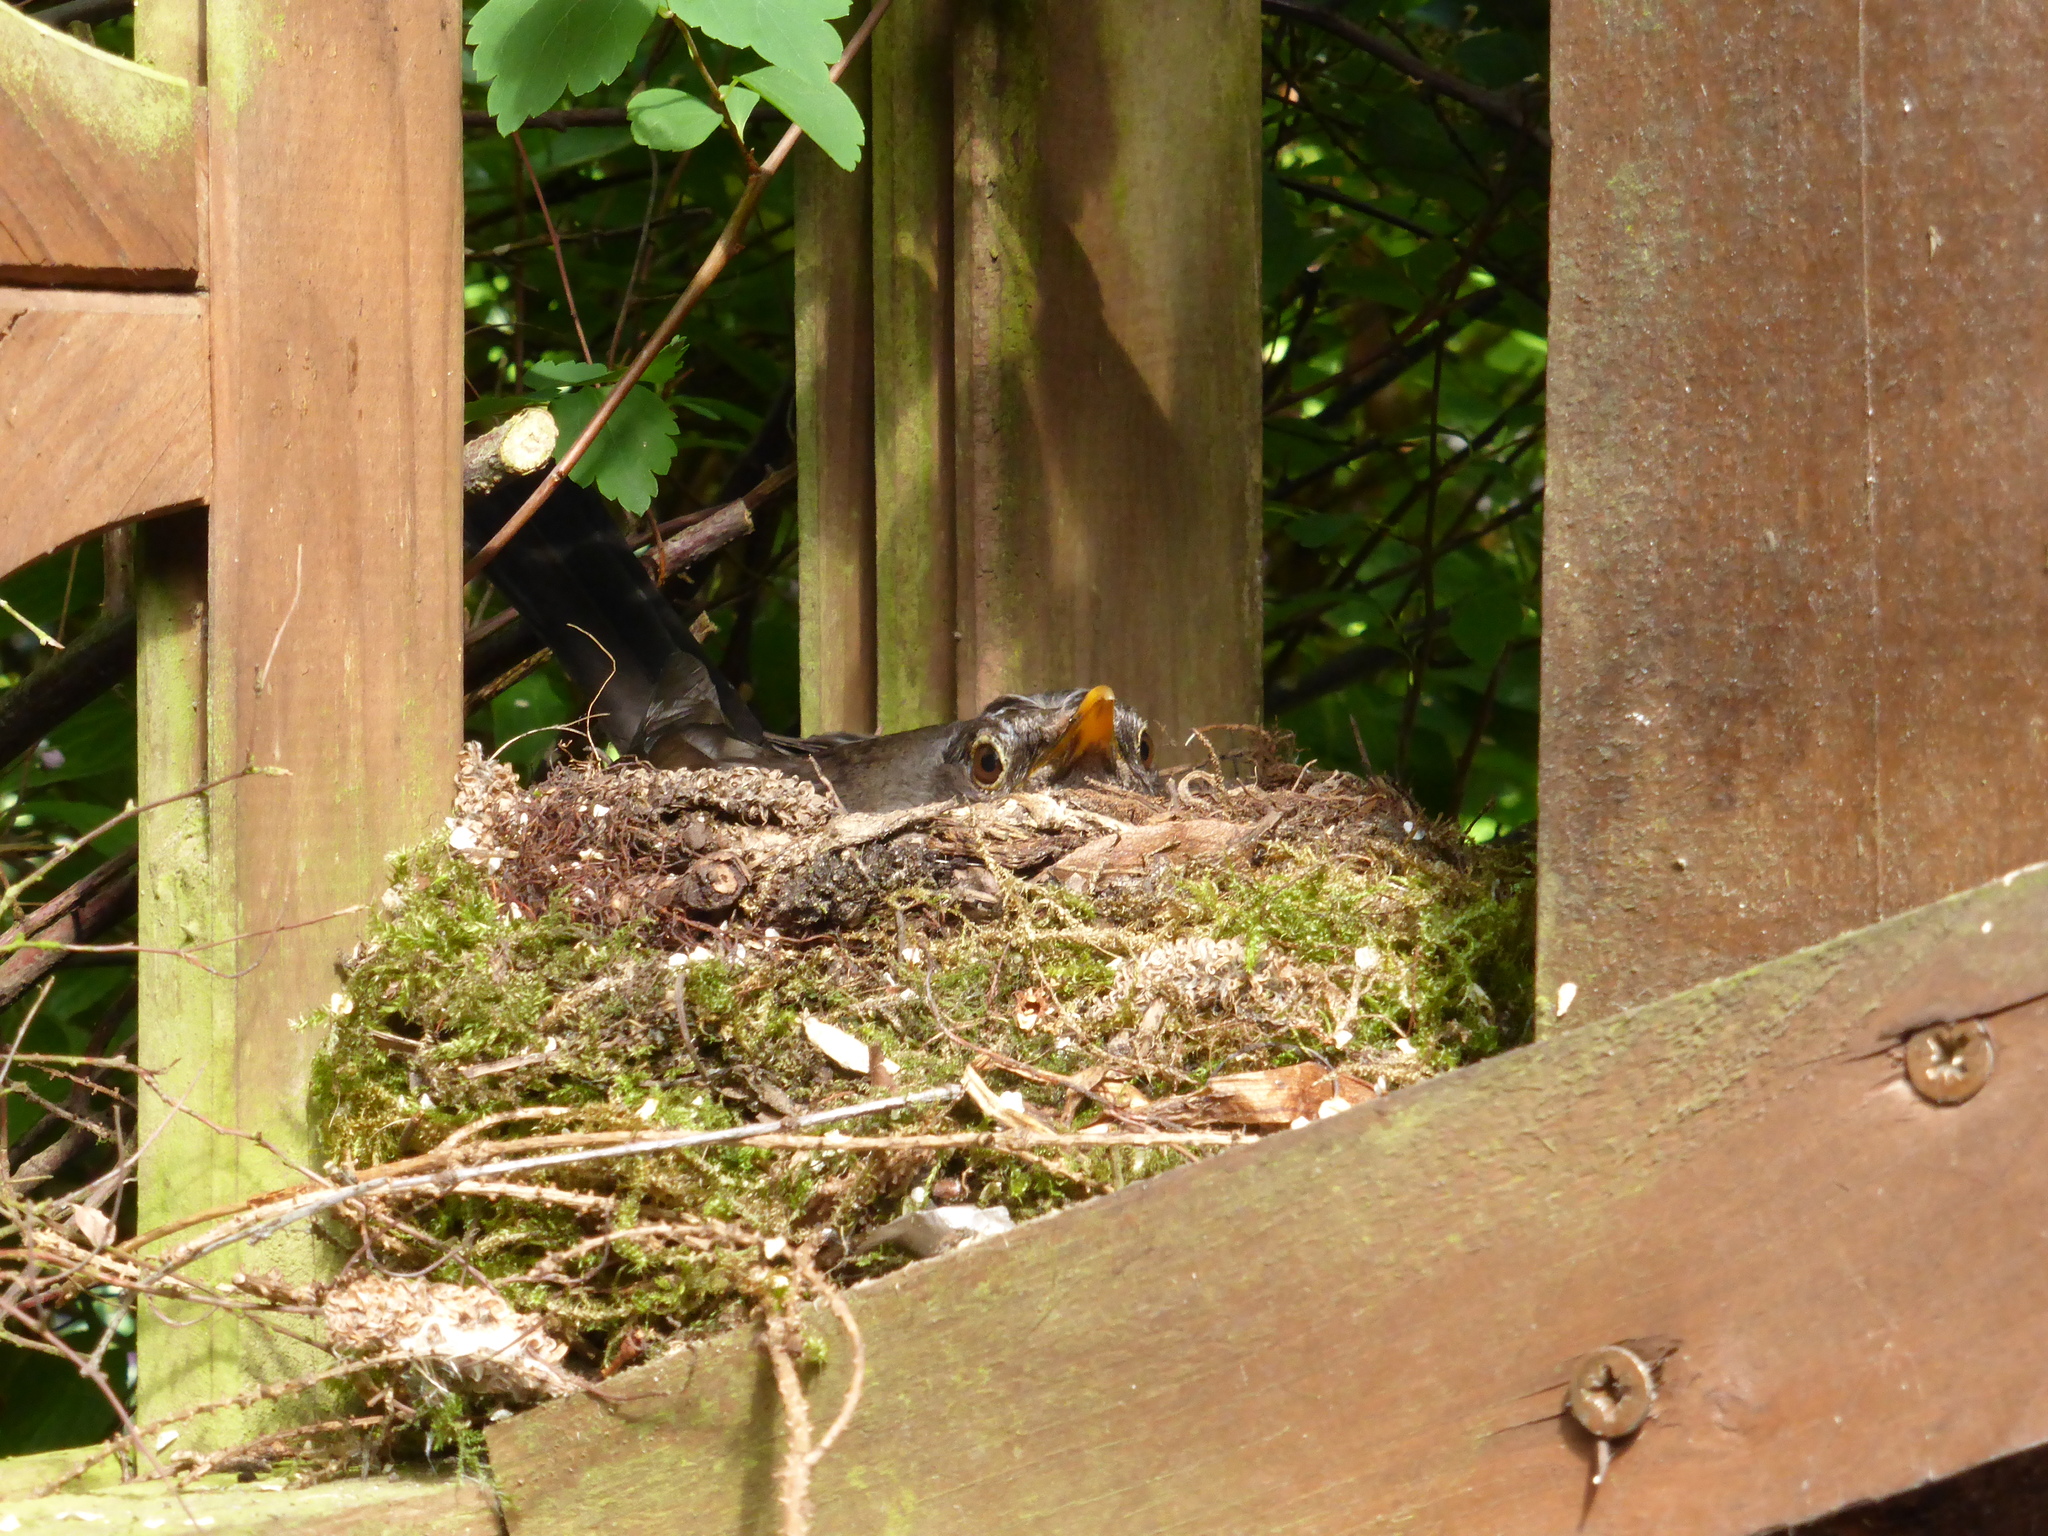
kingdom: Animalia
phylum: Chordata
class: Aves
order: Passeriformes
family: Turdidae
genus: Turdus
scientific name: Turdus merula
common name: Common blackbird
